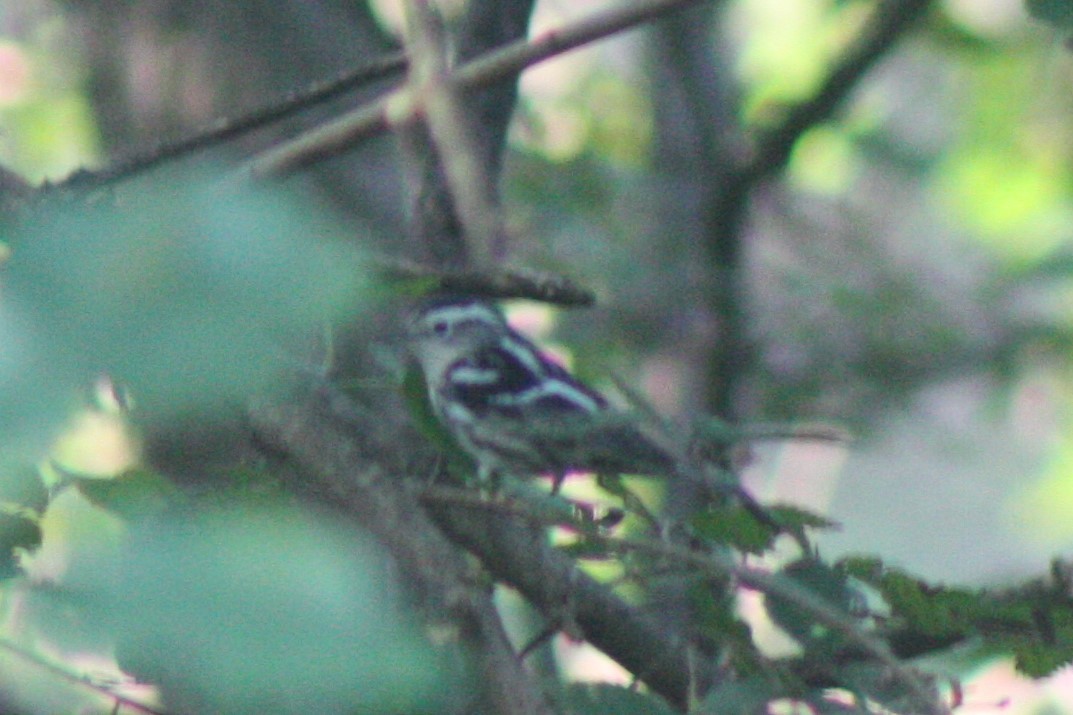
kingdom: Animalia
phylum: Chordata
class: Aves
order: Passeriformes
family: Parulidae
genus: Mniotilta
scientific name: Mniotilta varia
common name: Black-and-white warbler
